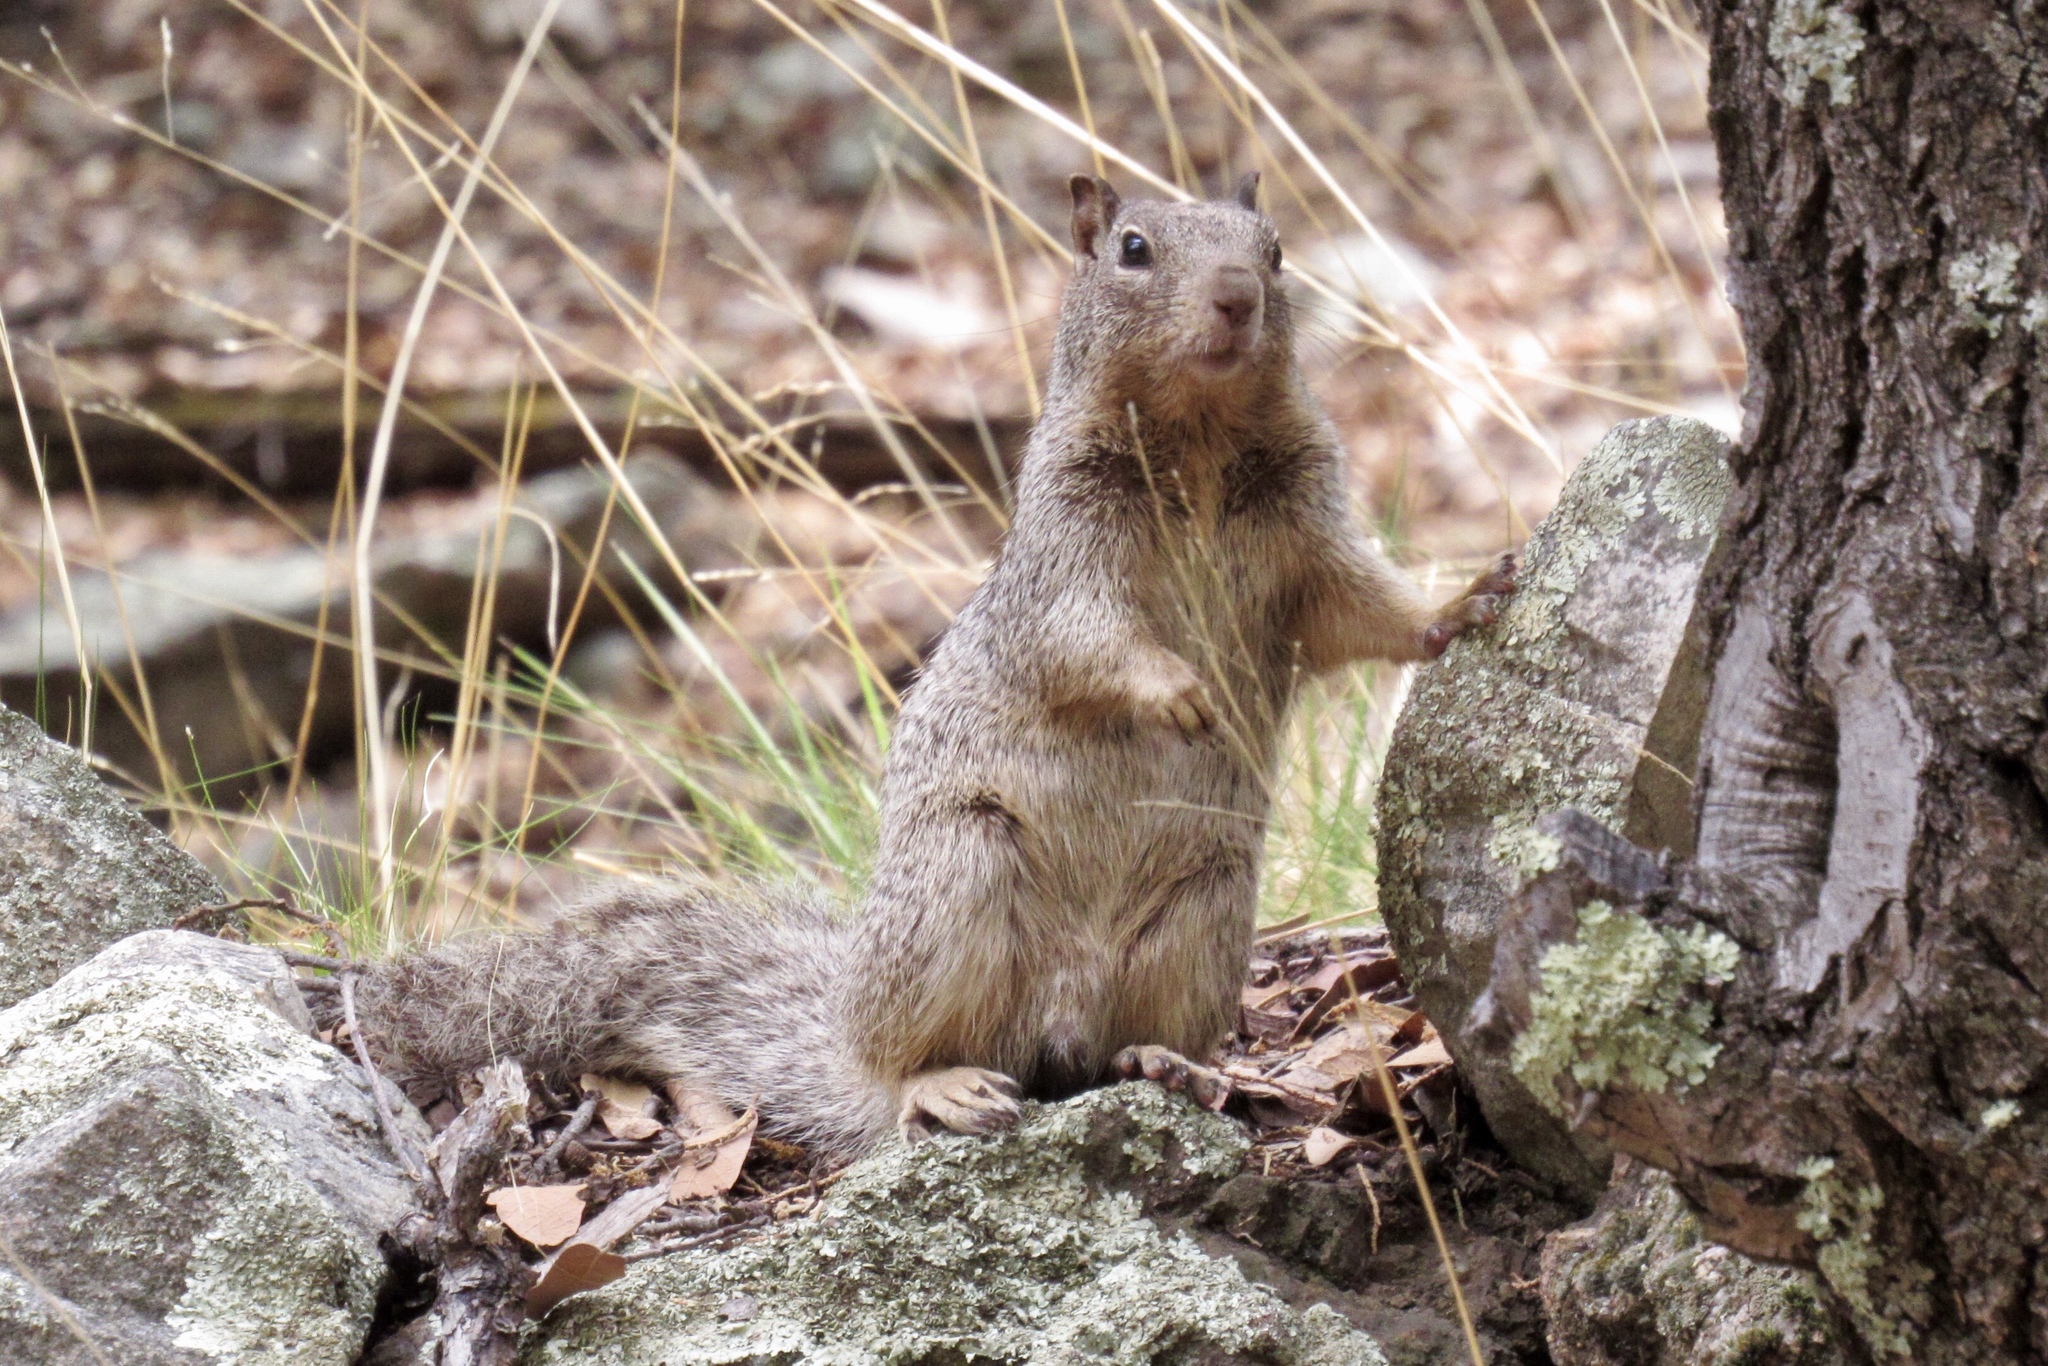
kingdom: Animalia
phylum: Chordata
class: Mammalia
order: Rodentia
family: Sciuridae
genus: Otospermophilus
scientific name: Otospermophilus variegatus
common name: Rock squirrel
